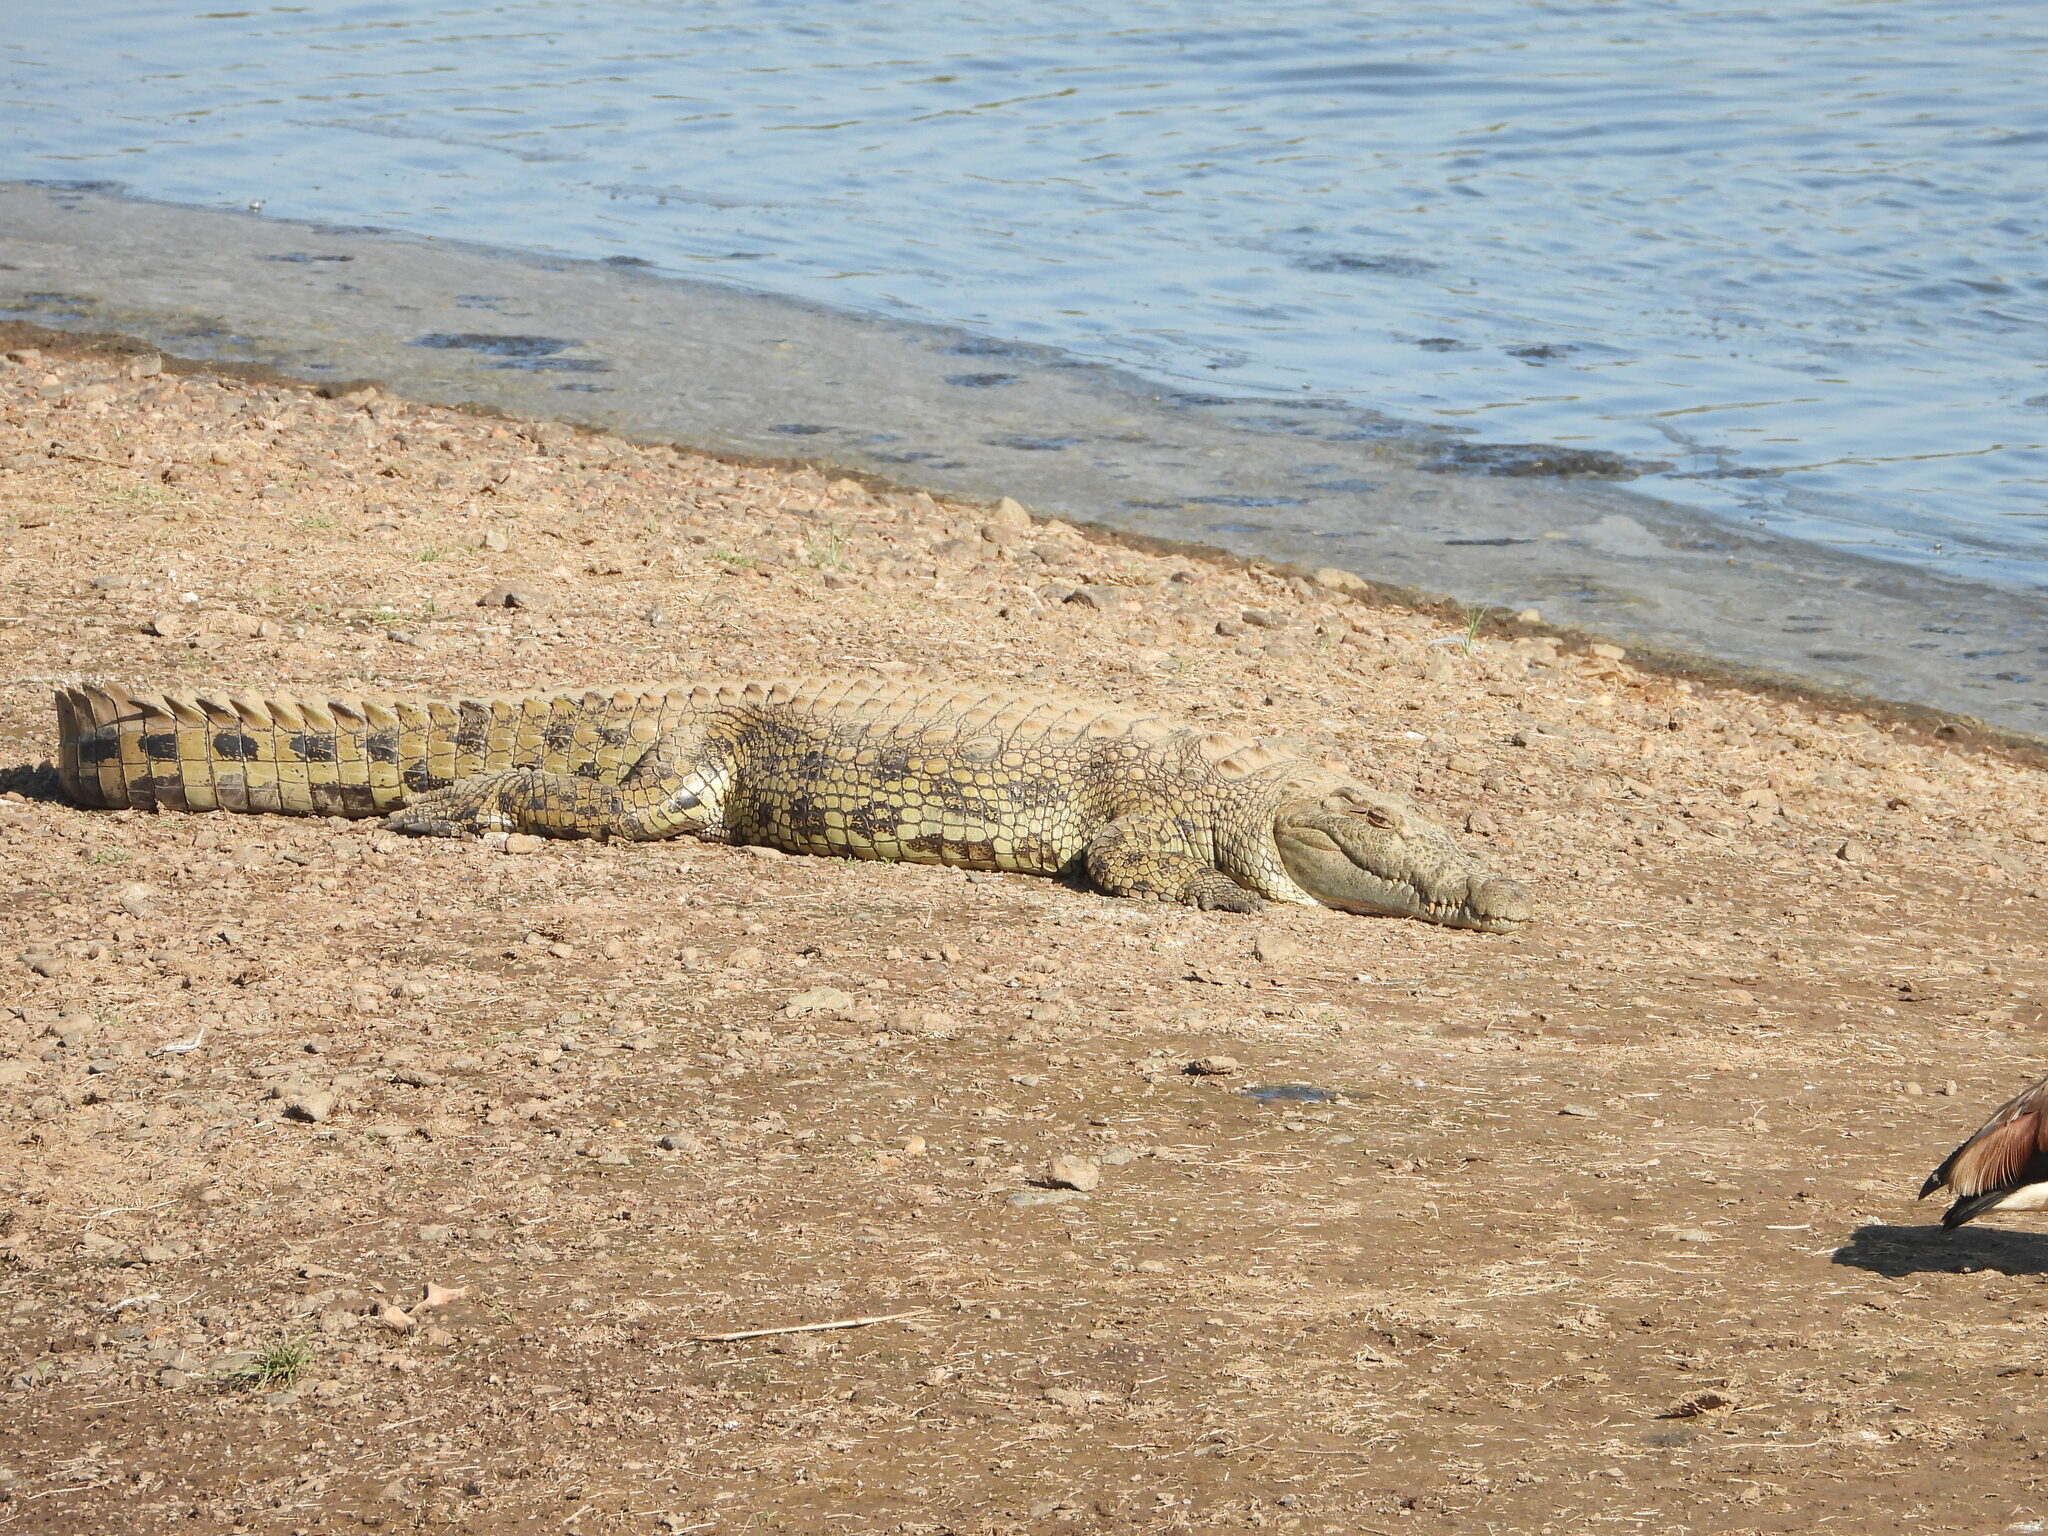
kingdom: Animalia
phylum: Chordata
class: Crocodylia
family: Crocodylidae
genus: Crocodylus
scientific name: Crocodylus niloticus
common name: Nile crocodile
